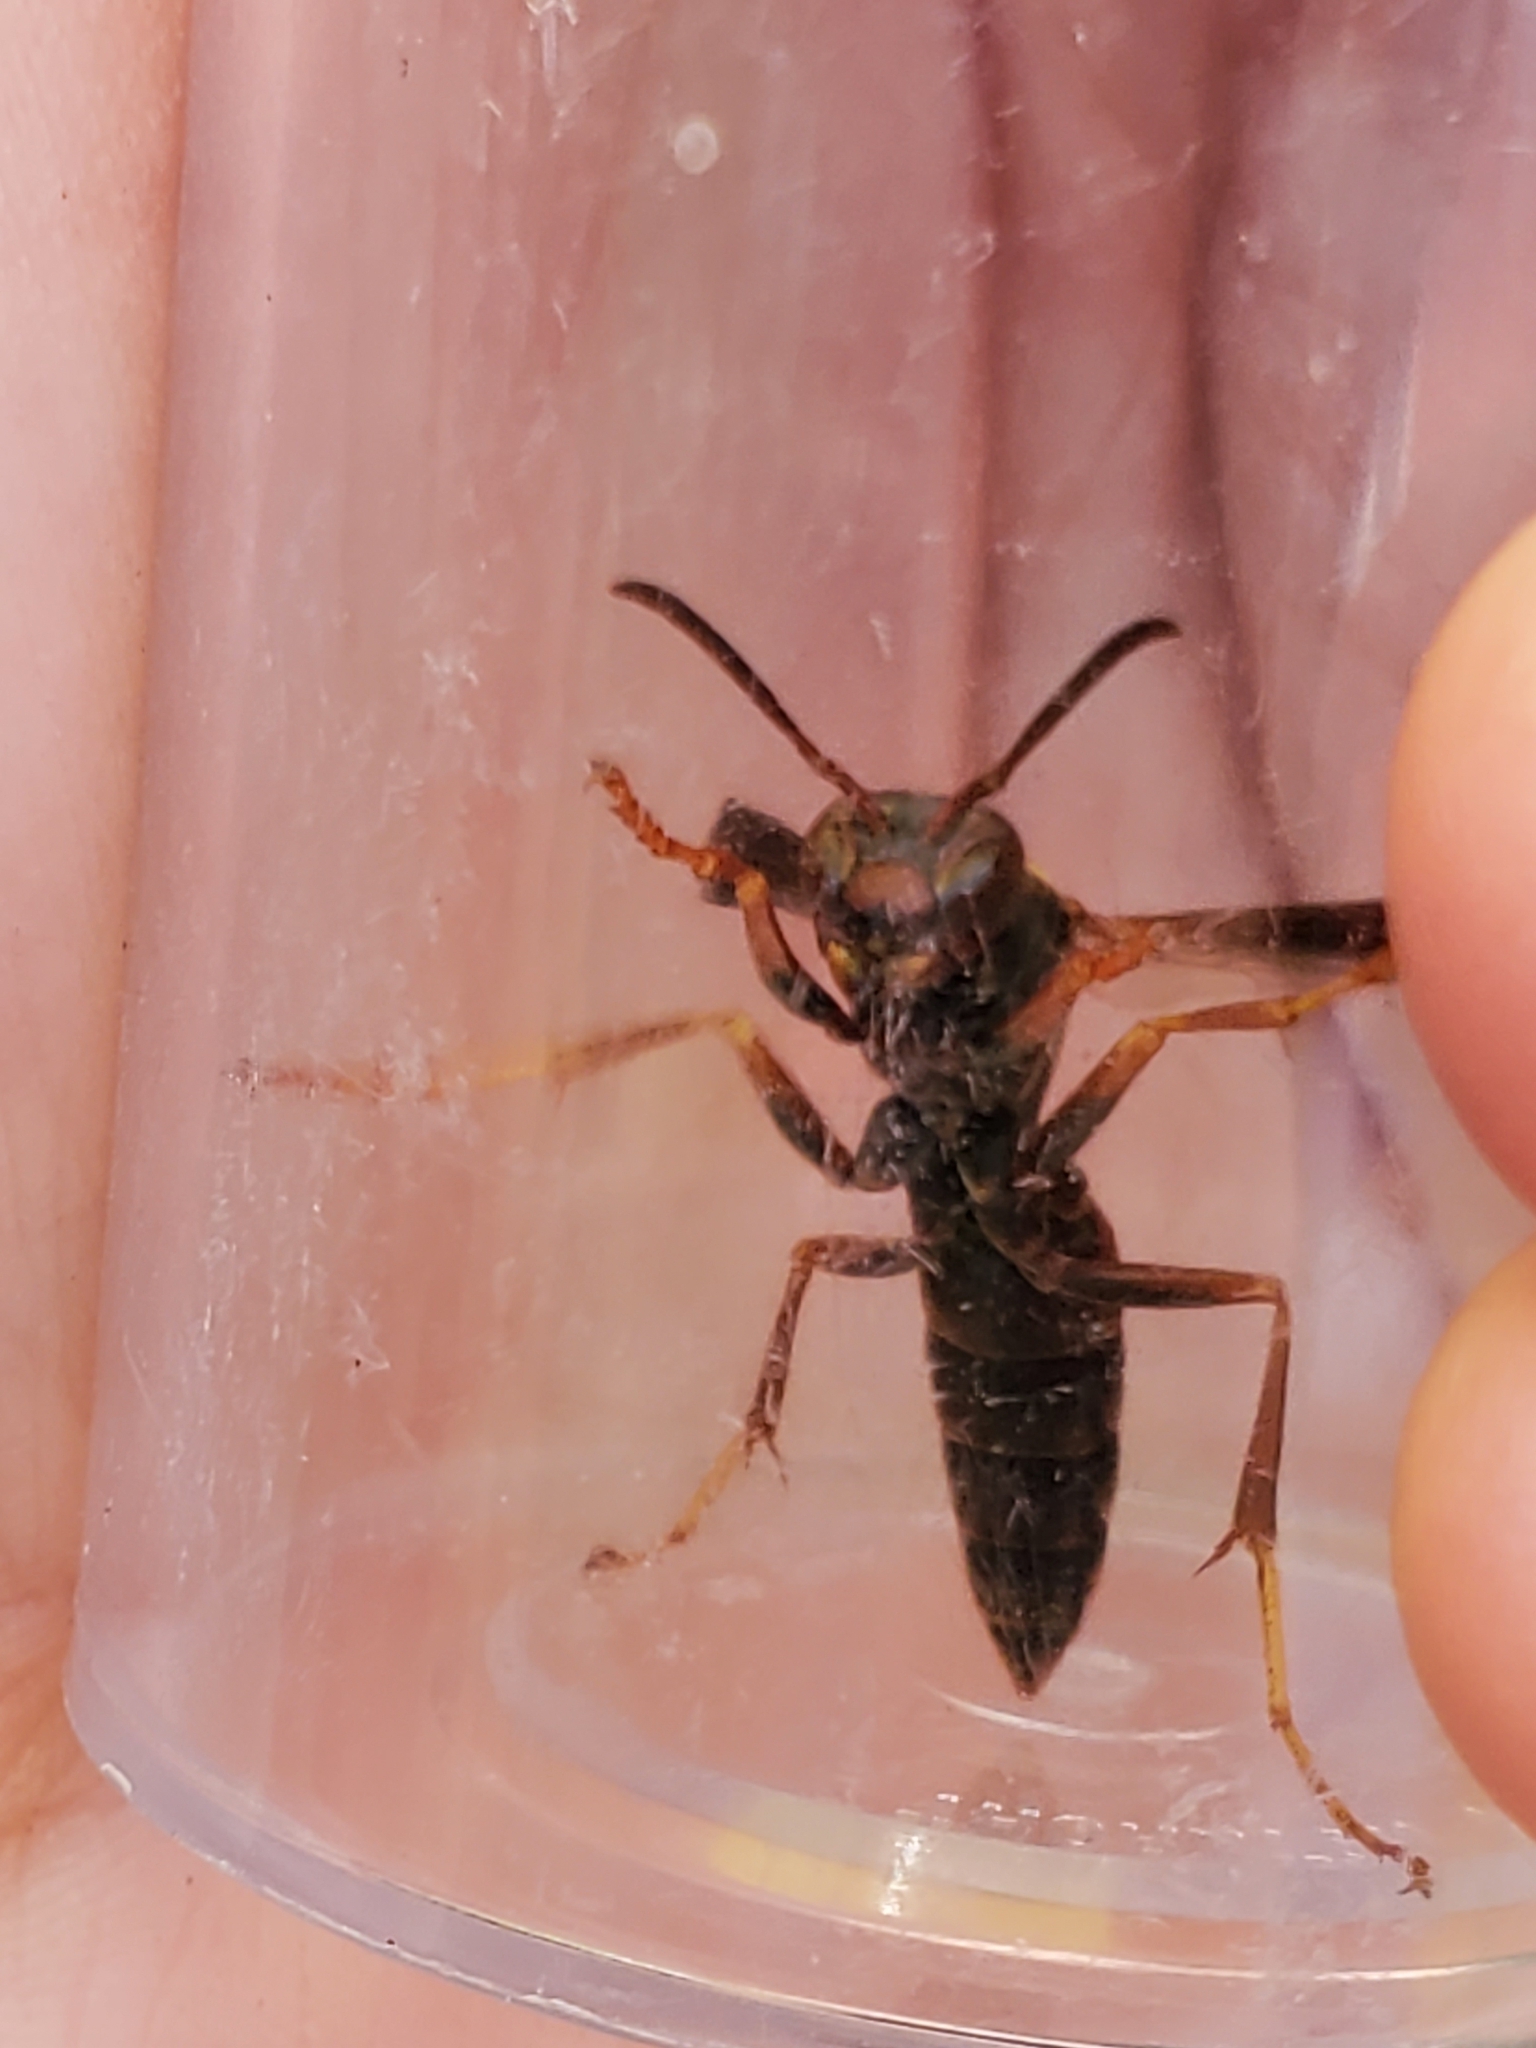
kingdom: Animalia
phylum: Arthropoda
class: Insecta
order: Hymenoptera
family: Eumenidae
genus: Polistes
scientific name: Polistes fuscatus
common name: Dark paper wasp
